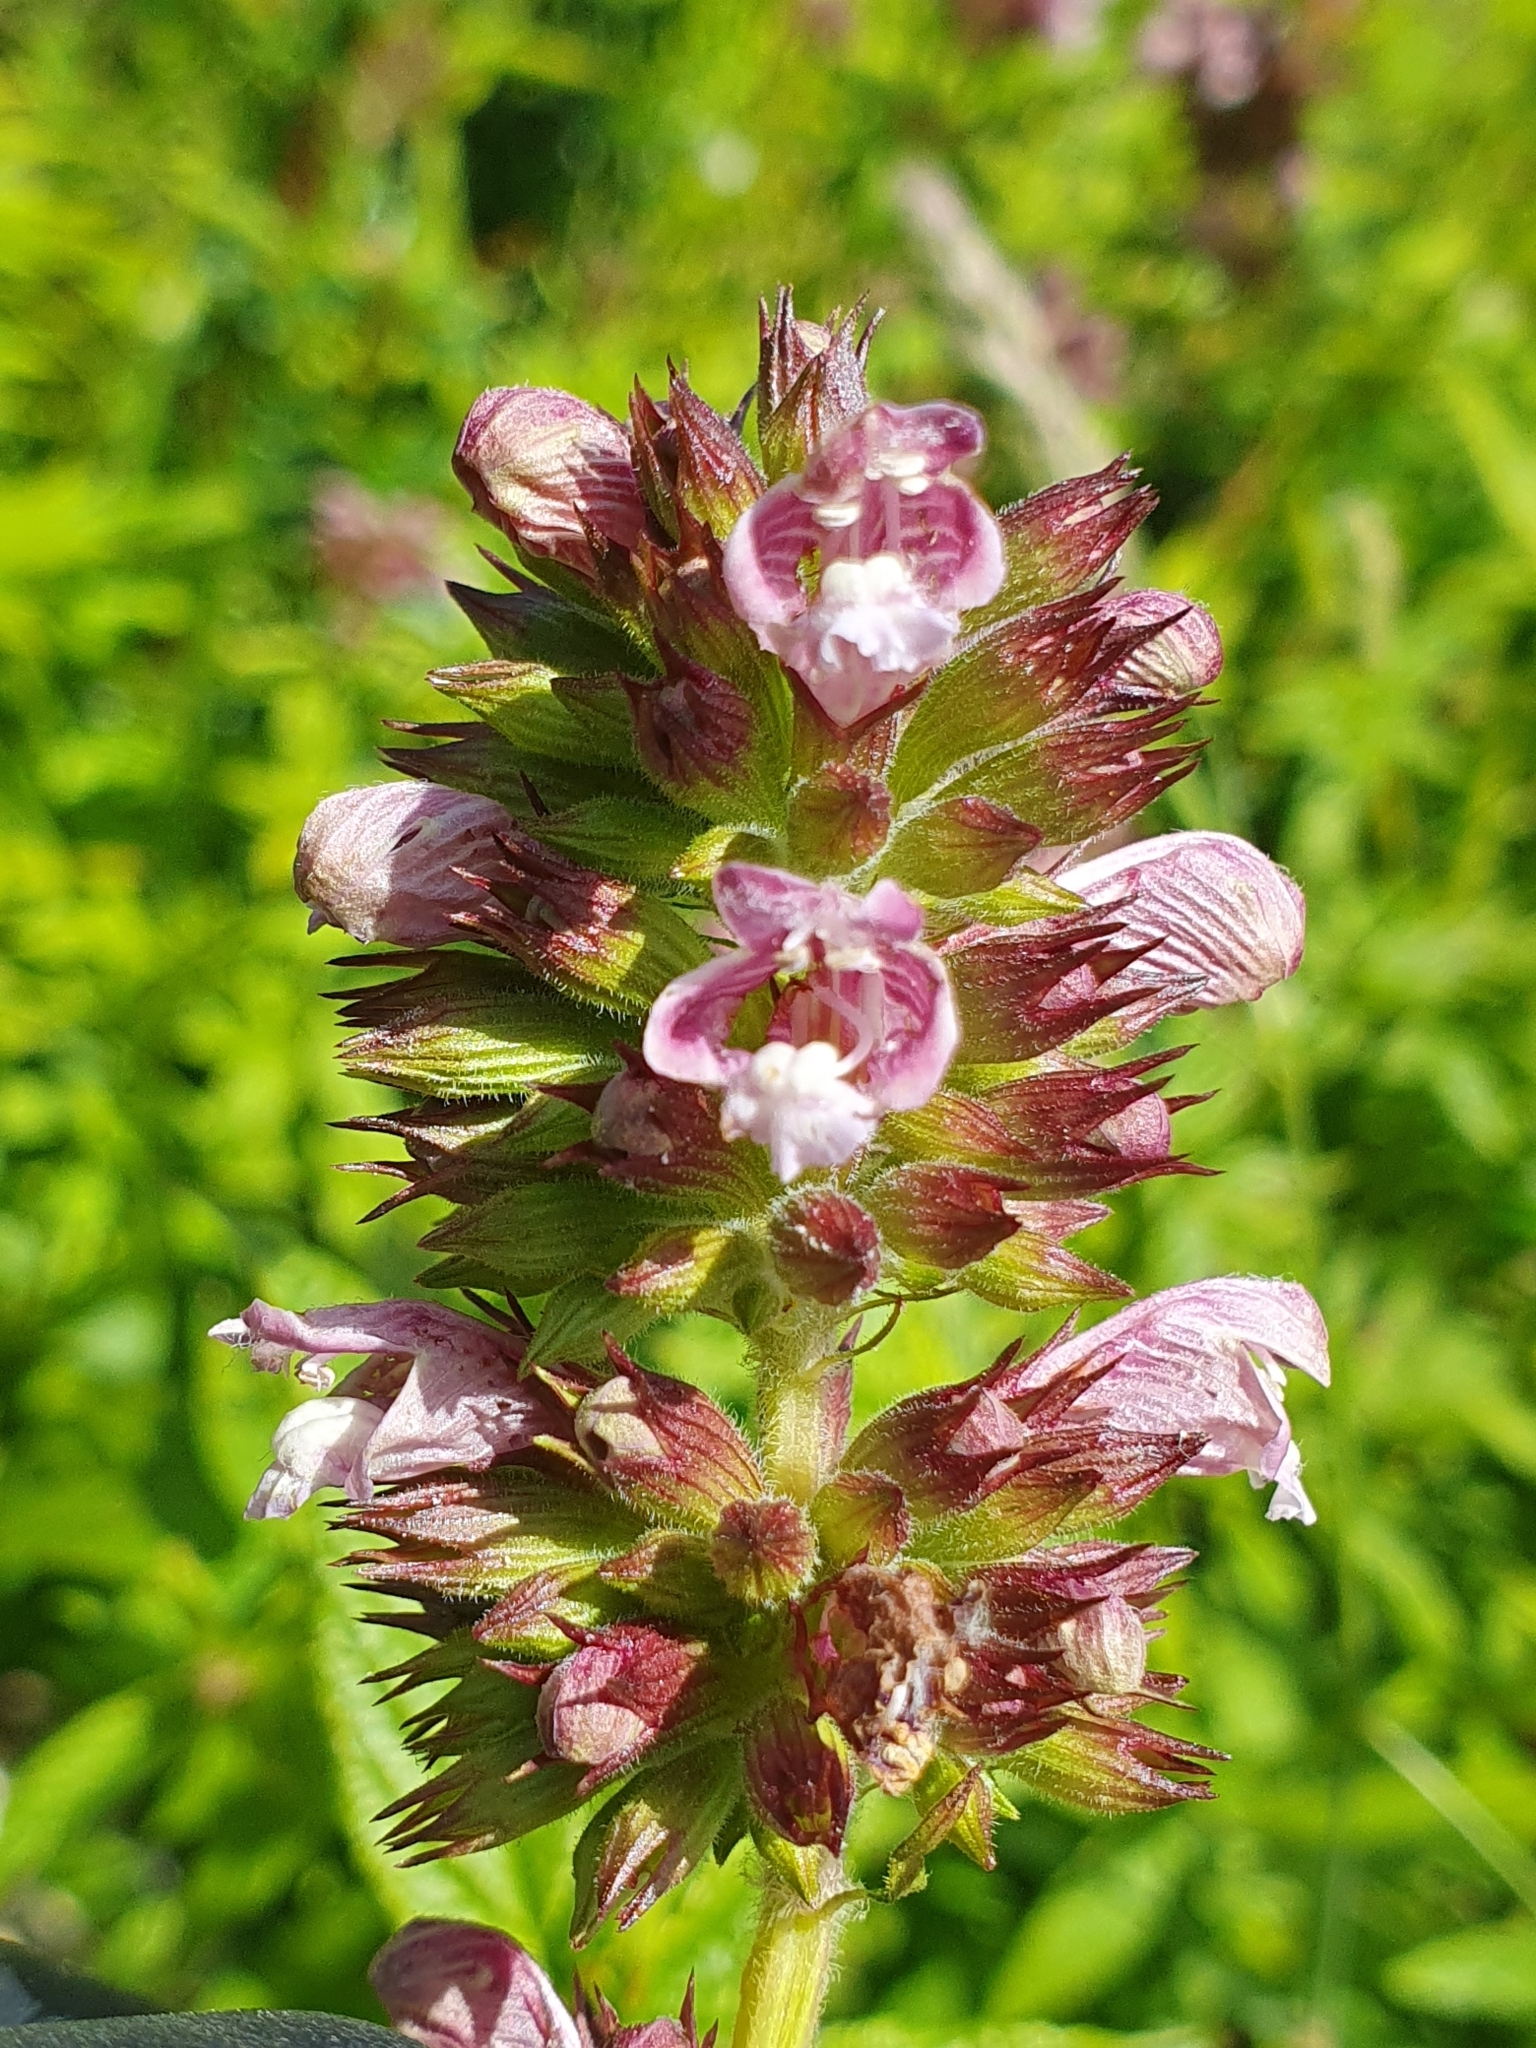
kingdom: Plantae
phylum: Tracheophyta
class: Magnoliopsida
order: Lamiales
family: Lamiaceae
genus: Cedronella
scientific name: Cedronella canariensis
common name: Canary islands balm
